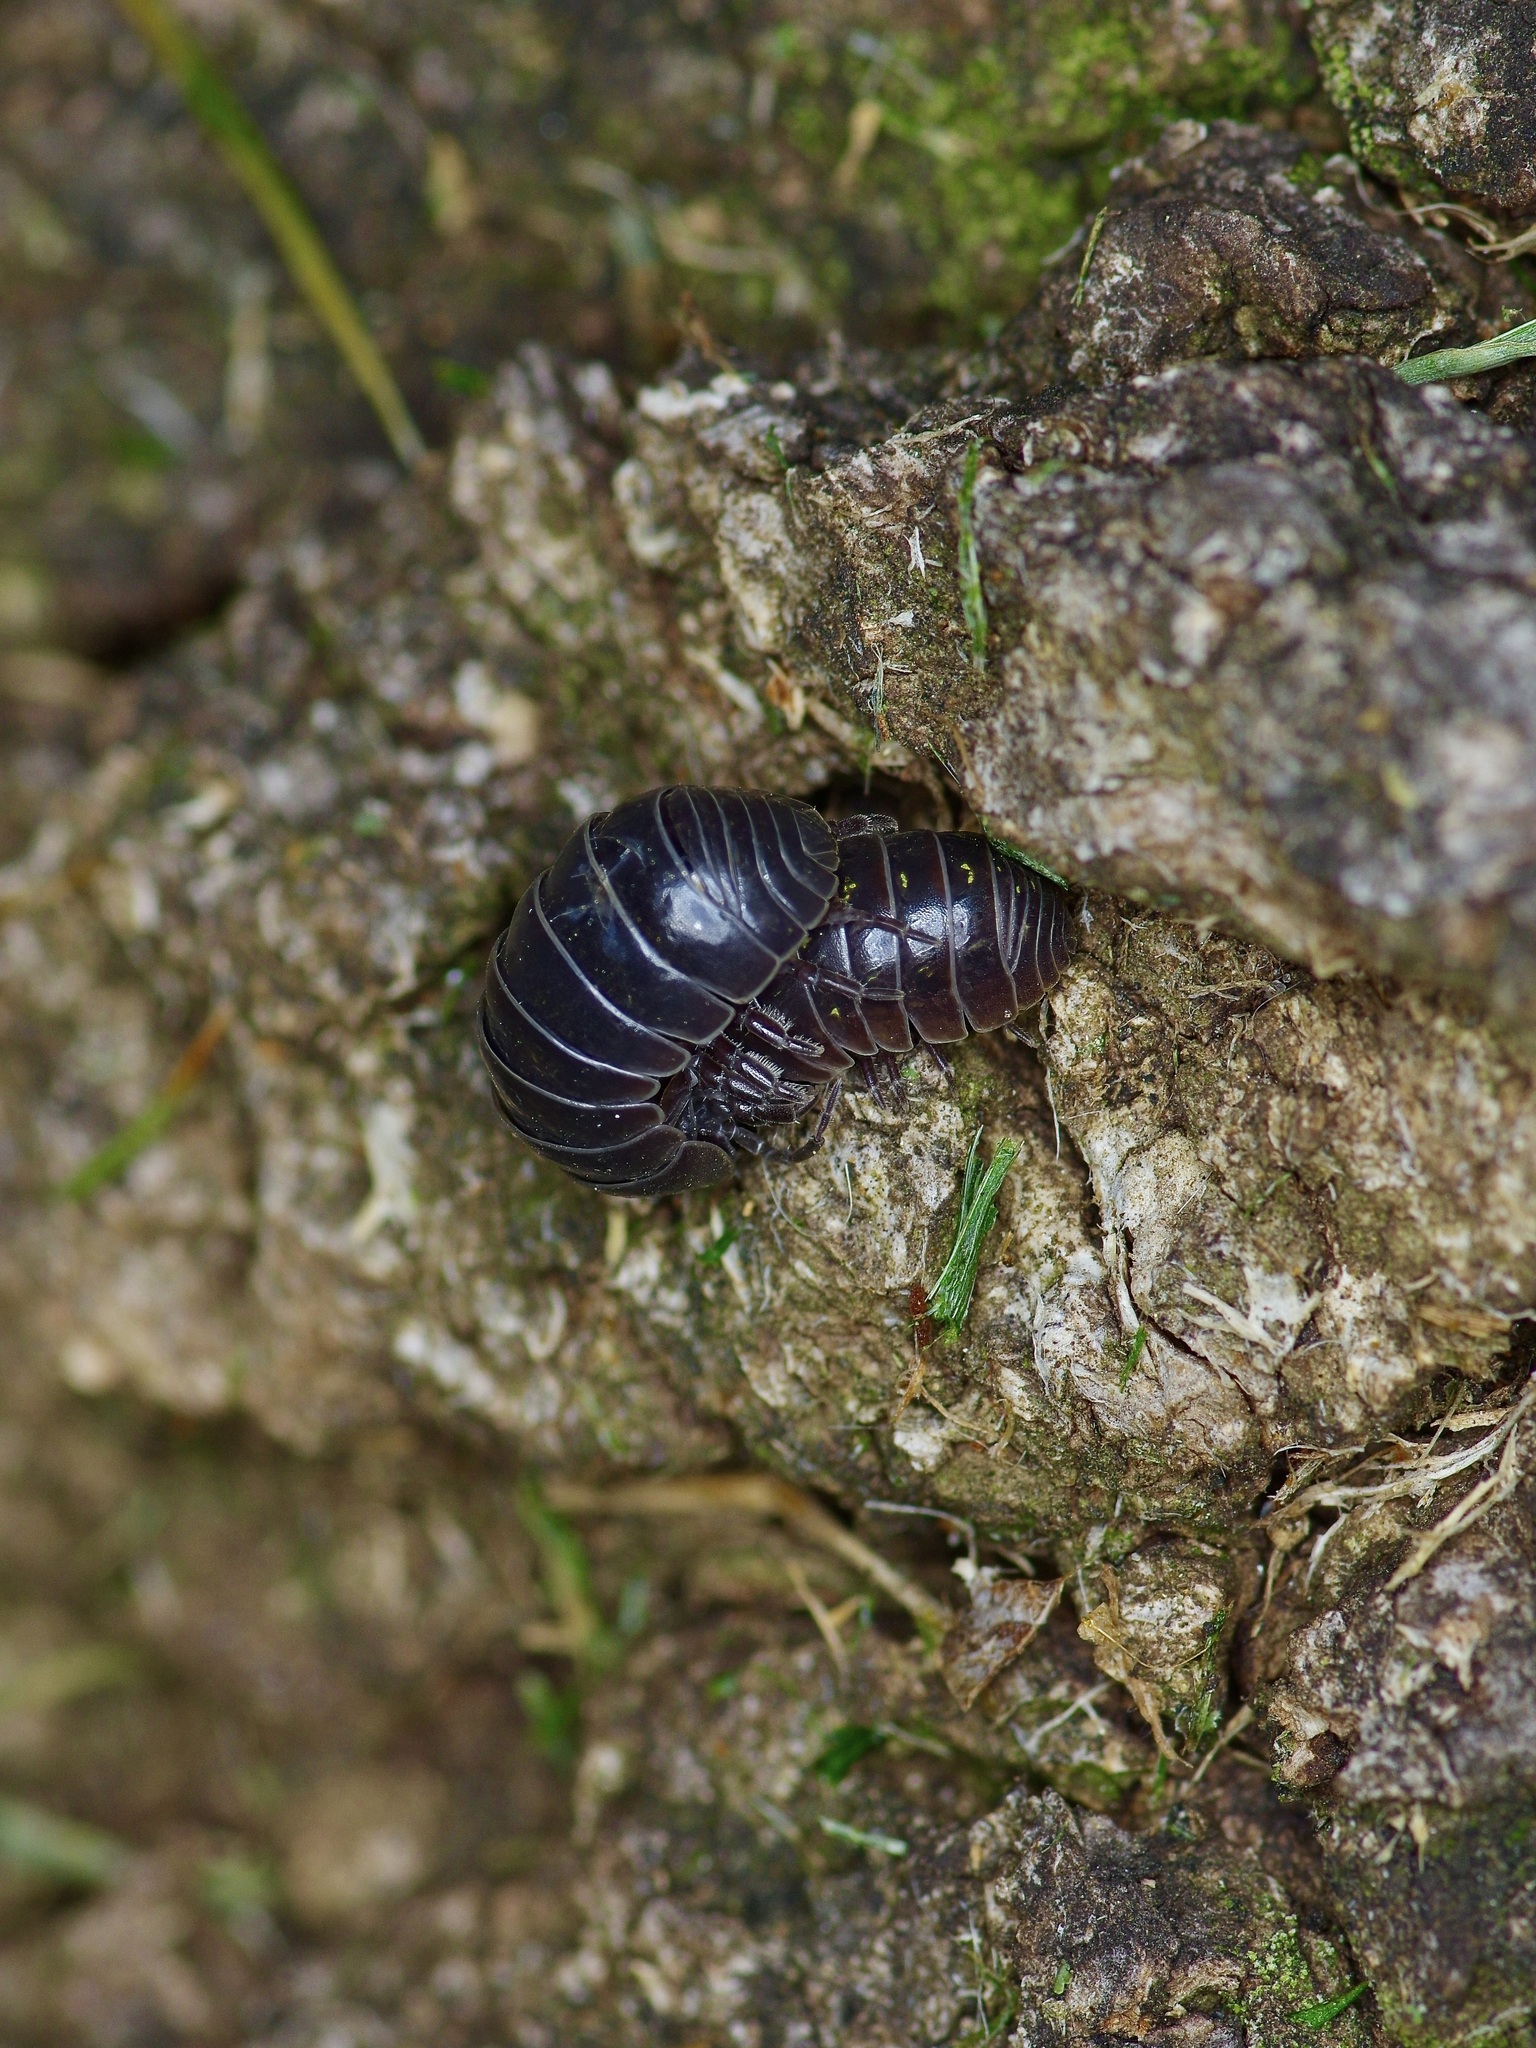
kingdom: Animalia
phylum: Arthropoda
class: Malacostraca
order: Isopoda
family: Armadillidiidae
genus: Armadillidium
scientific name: Armadillidium vulgare
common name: Common pill woodlouse
